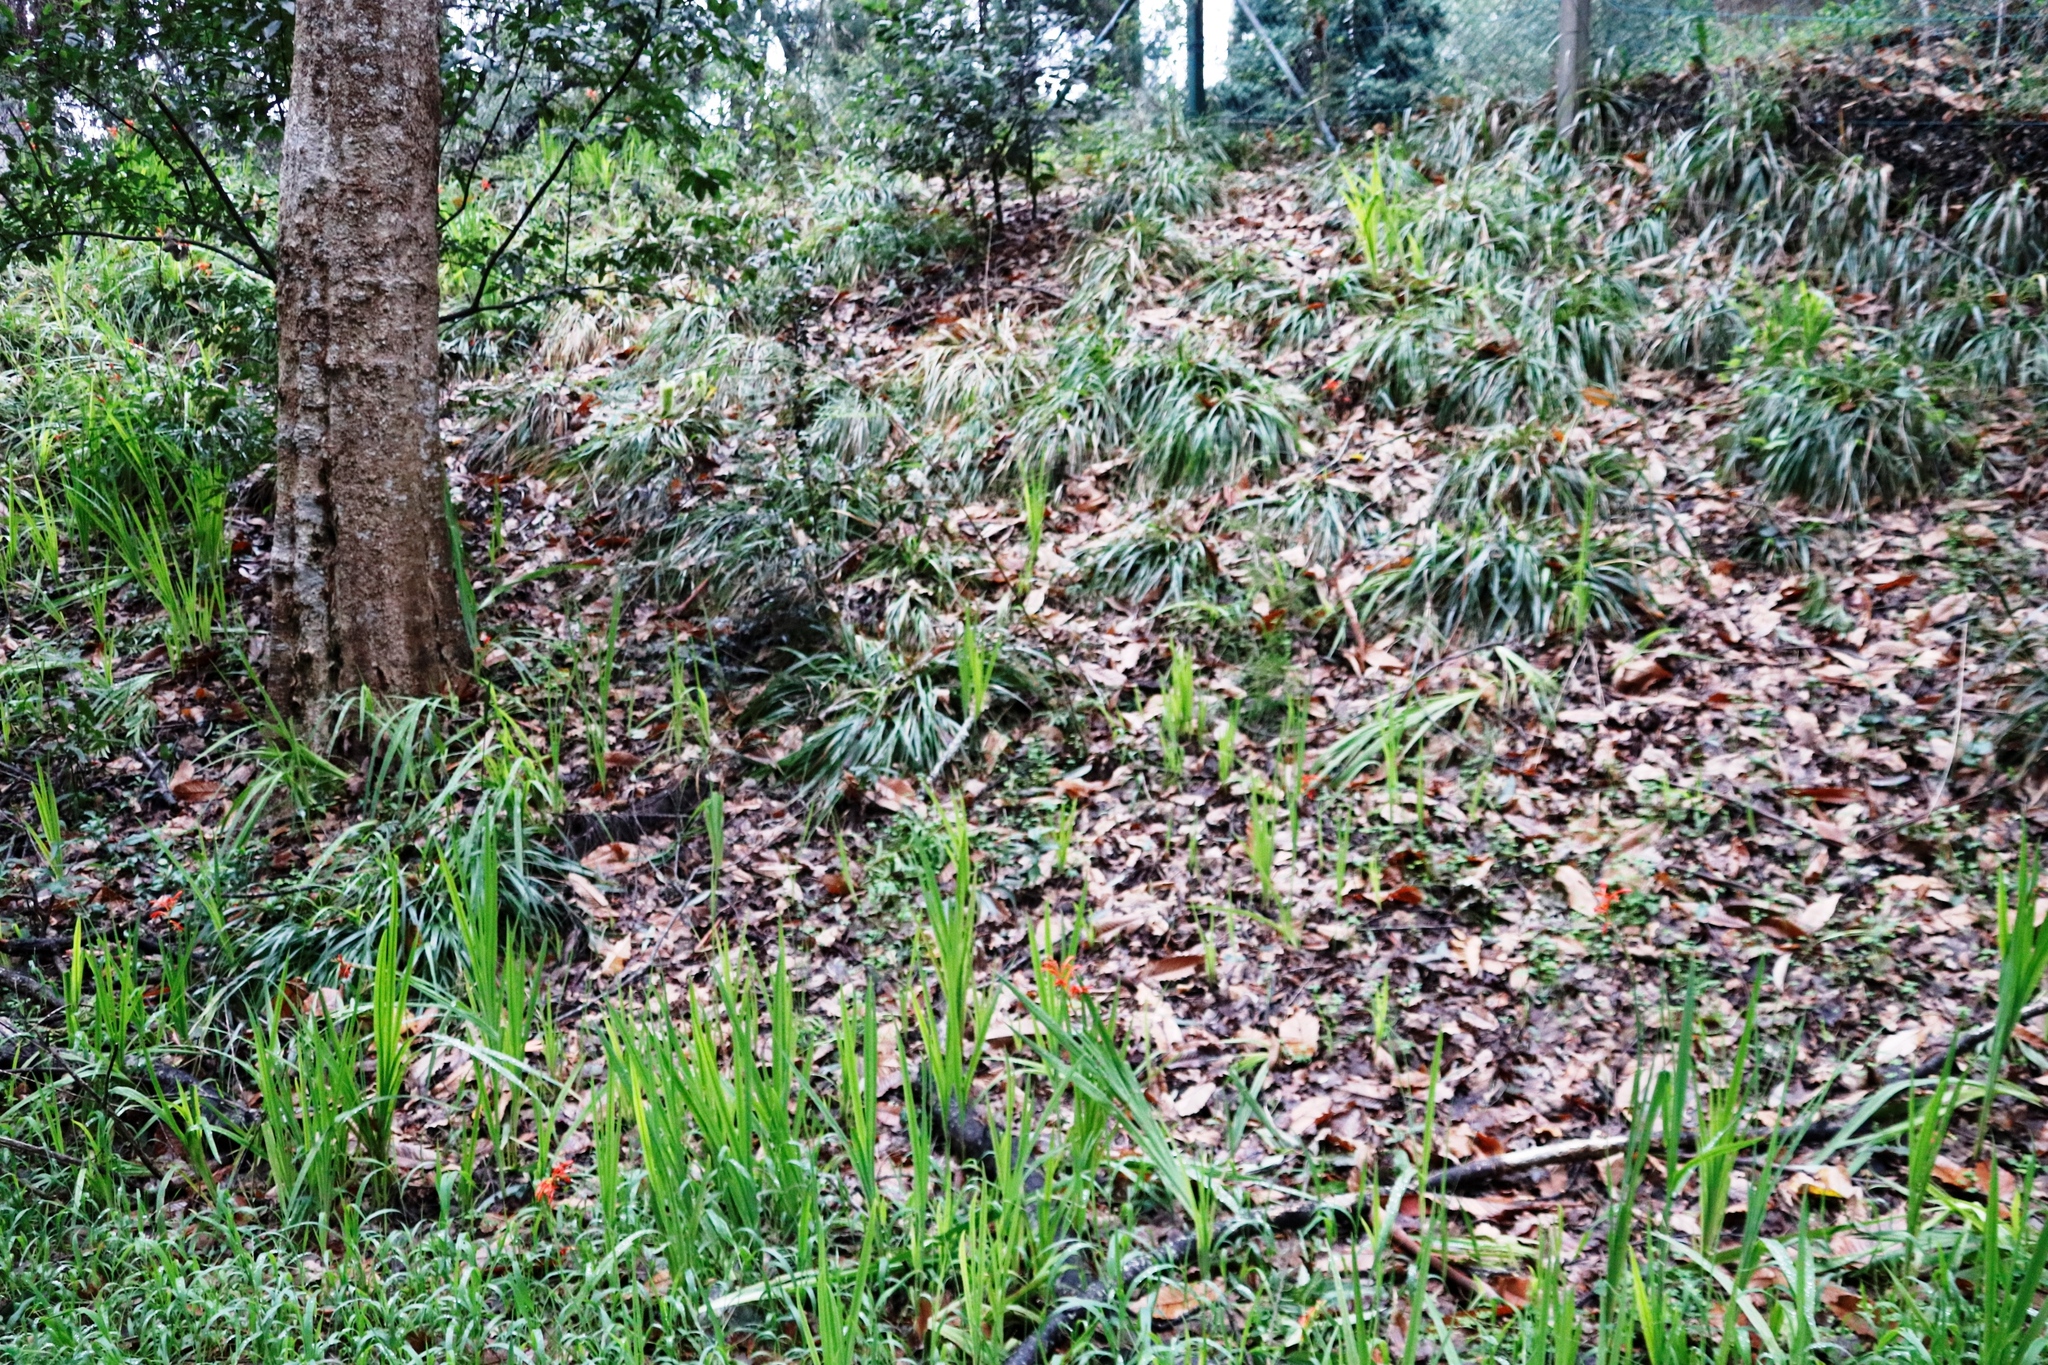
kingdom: Plantae
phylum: Tracheophyta
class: Magnoliopsida
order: Fabales
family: Fabaceae
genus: Paraserianthes
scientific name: Paraserianthes lophantha
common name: Plume albizia
